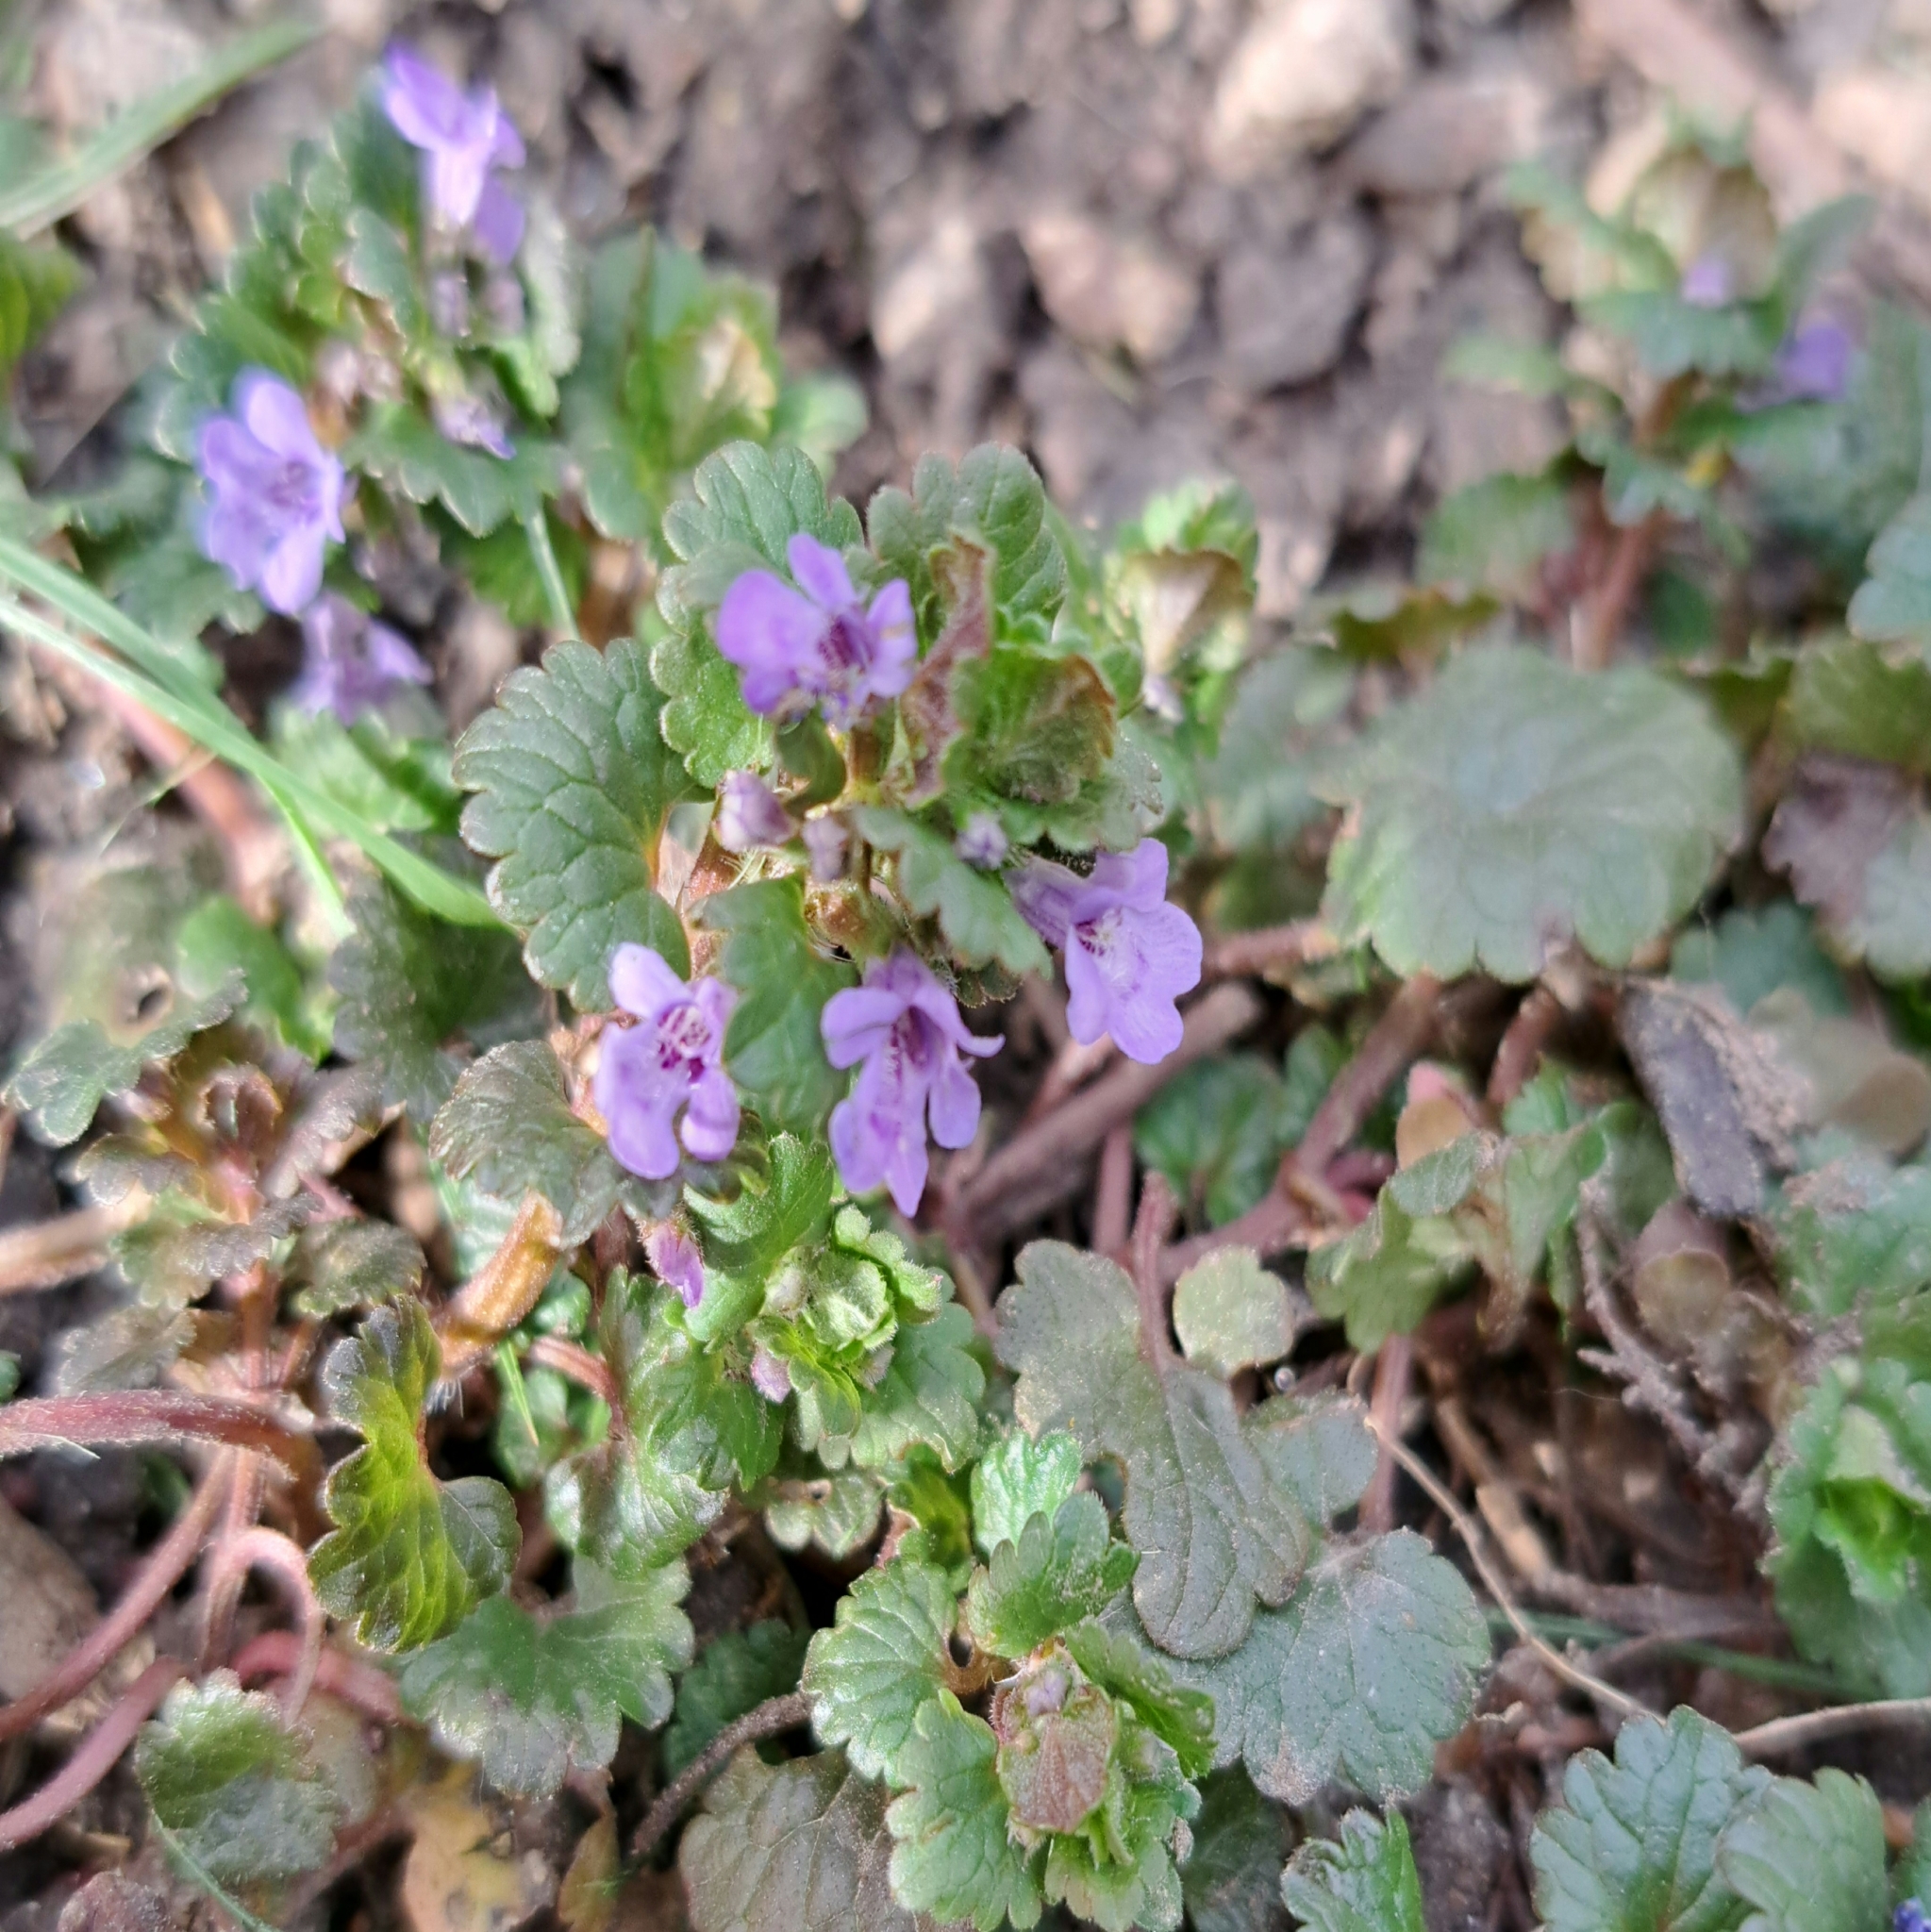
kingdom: Plantae
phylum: Tracheophyta
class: Magnoliopsida
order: Lamiales
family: Lamiaceae
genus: Glechoma
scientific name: Glechoma hederacea
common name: Ground ivy
